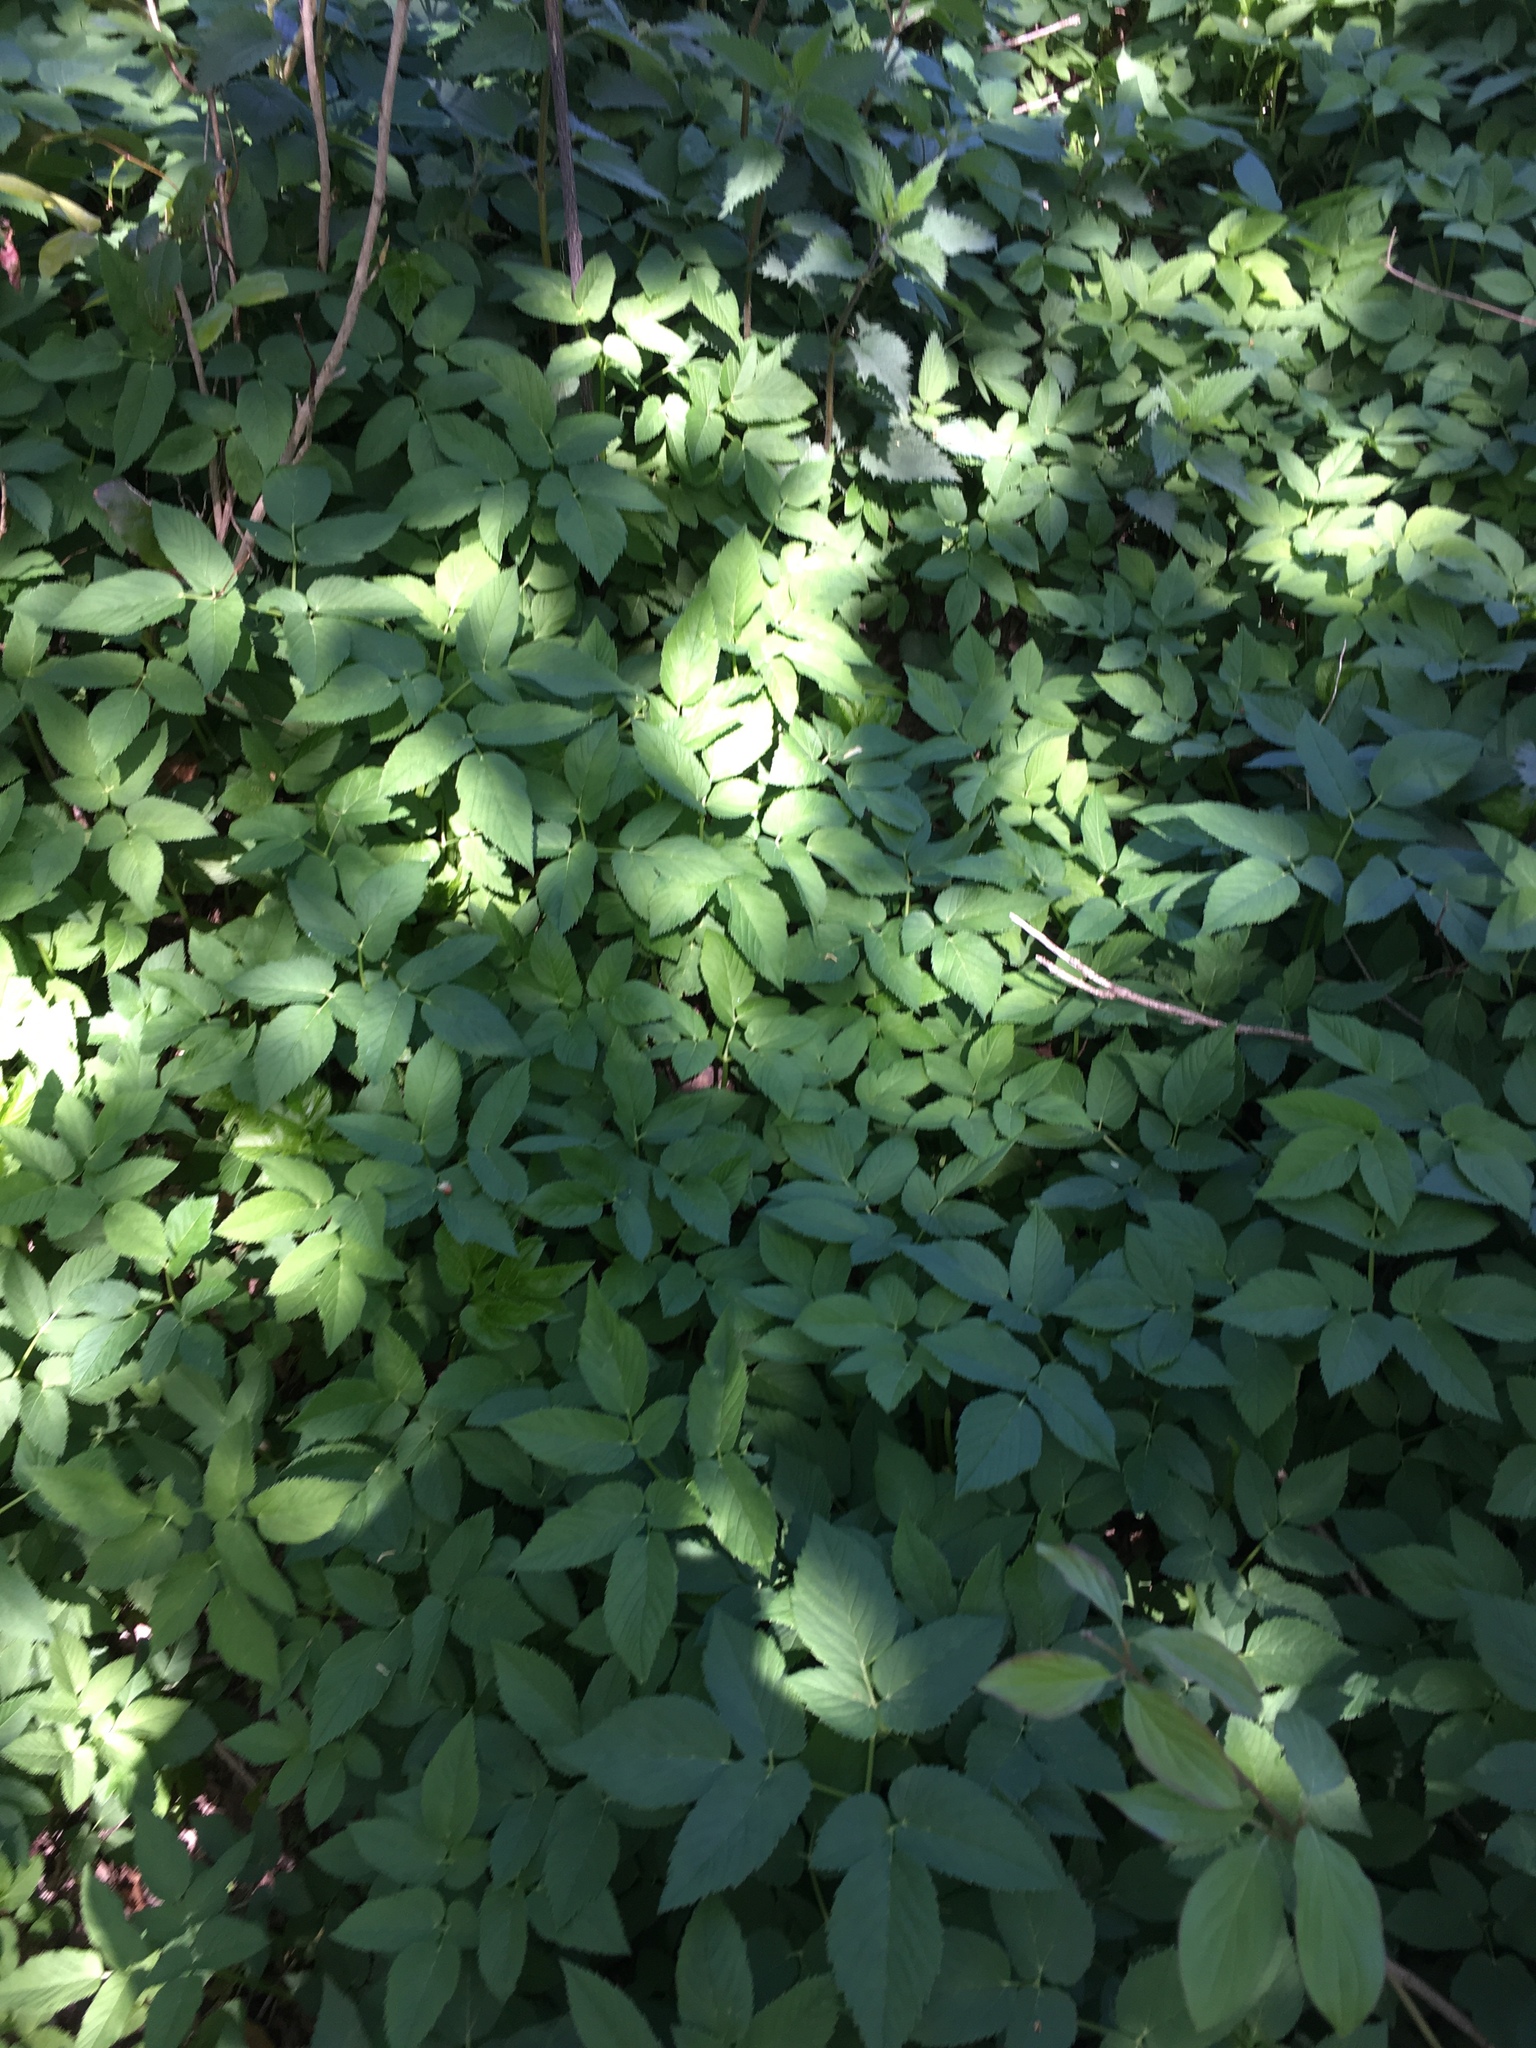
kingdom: Plantae
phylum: Tracheophyta
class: Magnoliopsida
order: Apiales
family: Apiaceae
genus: Aegopodium
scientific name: Aegopodium podagraria
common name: Ground-elder
